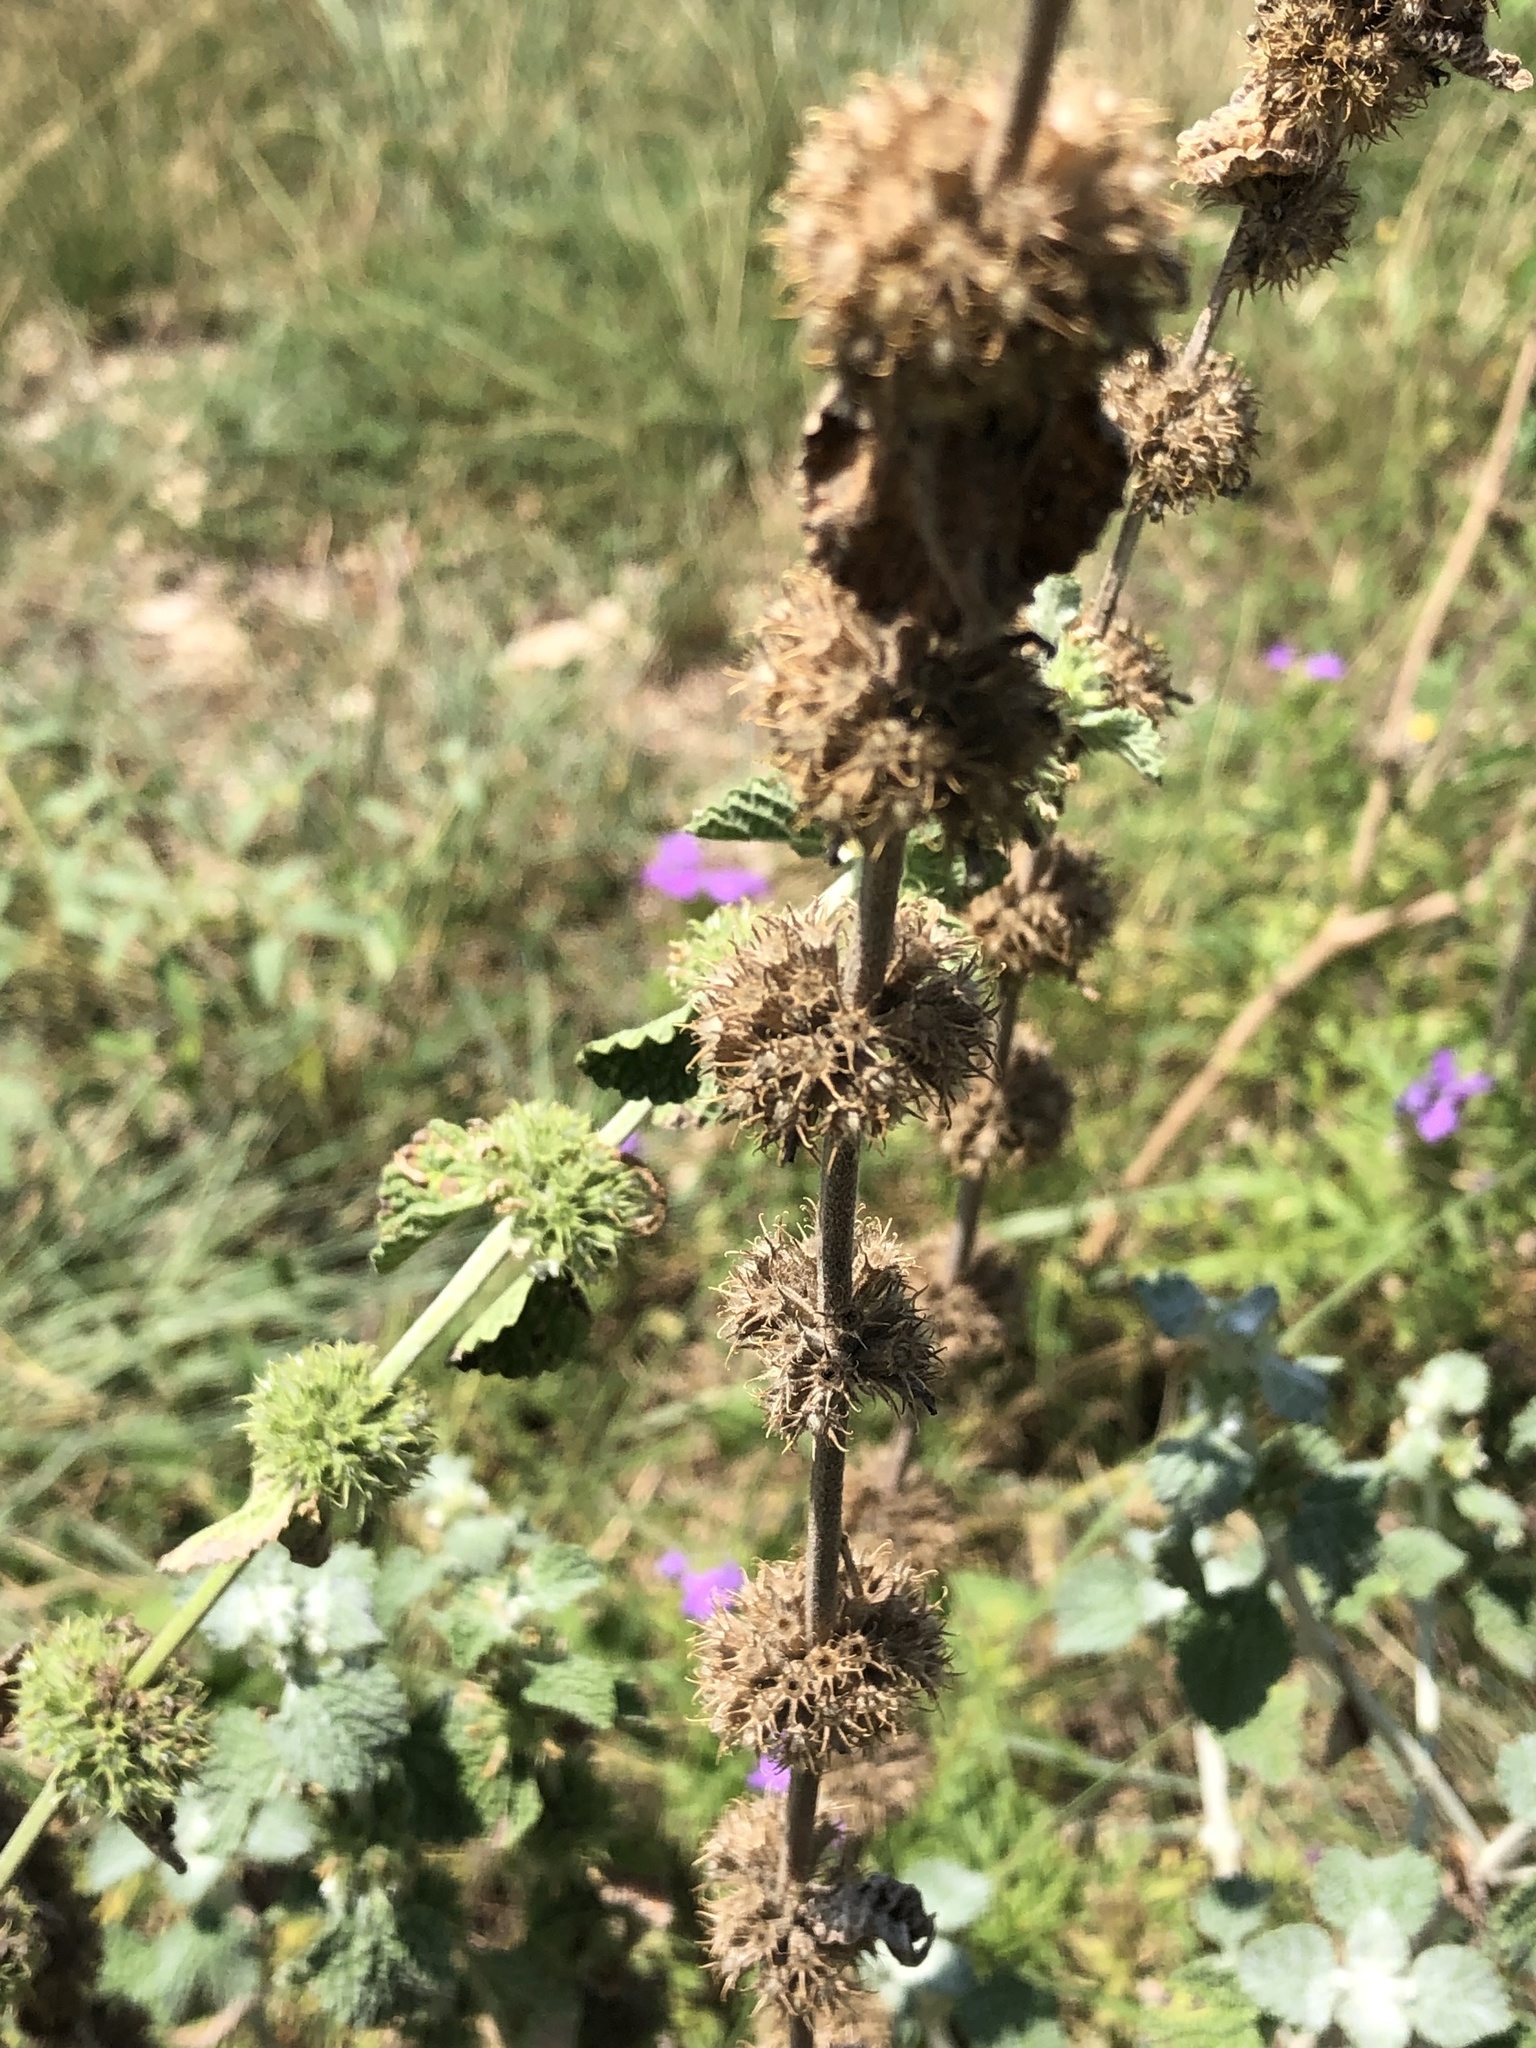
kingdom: Plantae
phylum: Tracheophyta
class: Magnoliopsida
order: Lamiales
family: Lamiaceae
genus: Marrubium
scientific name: Marrubium vulgare
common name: Horehound
